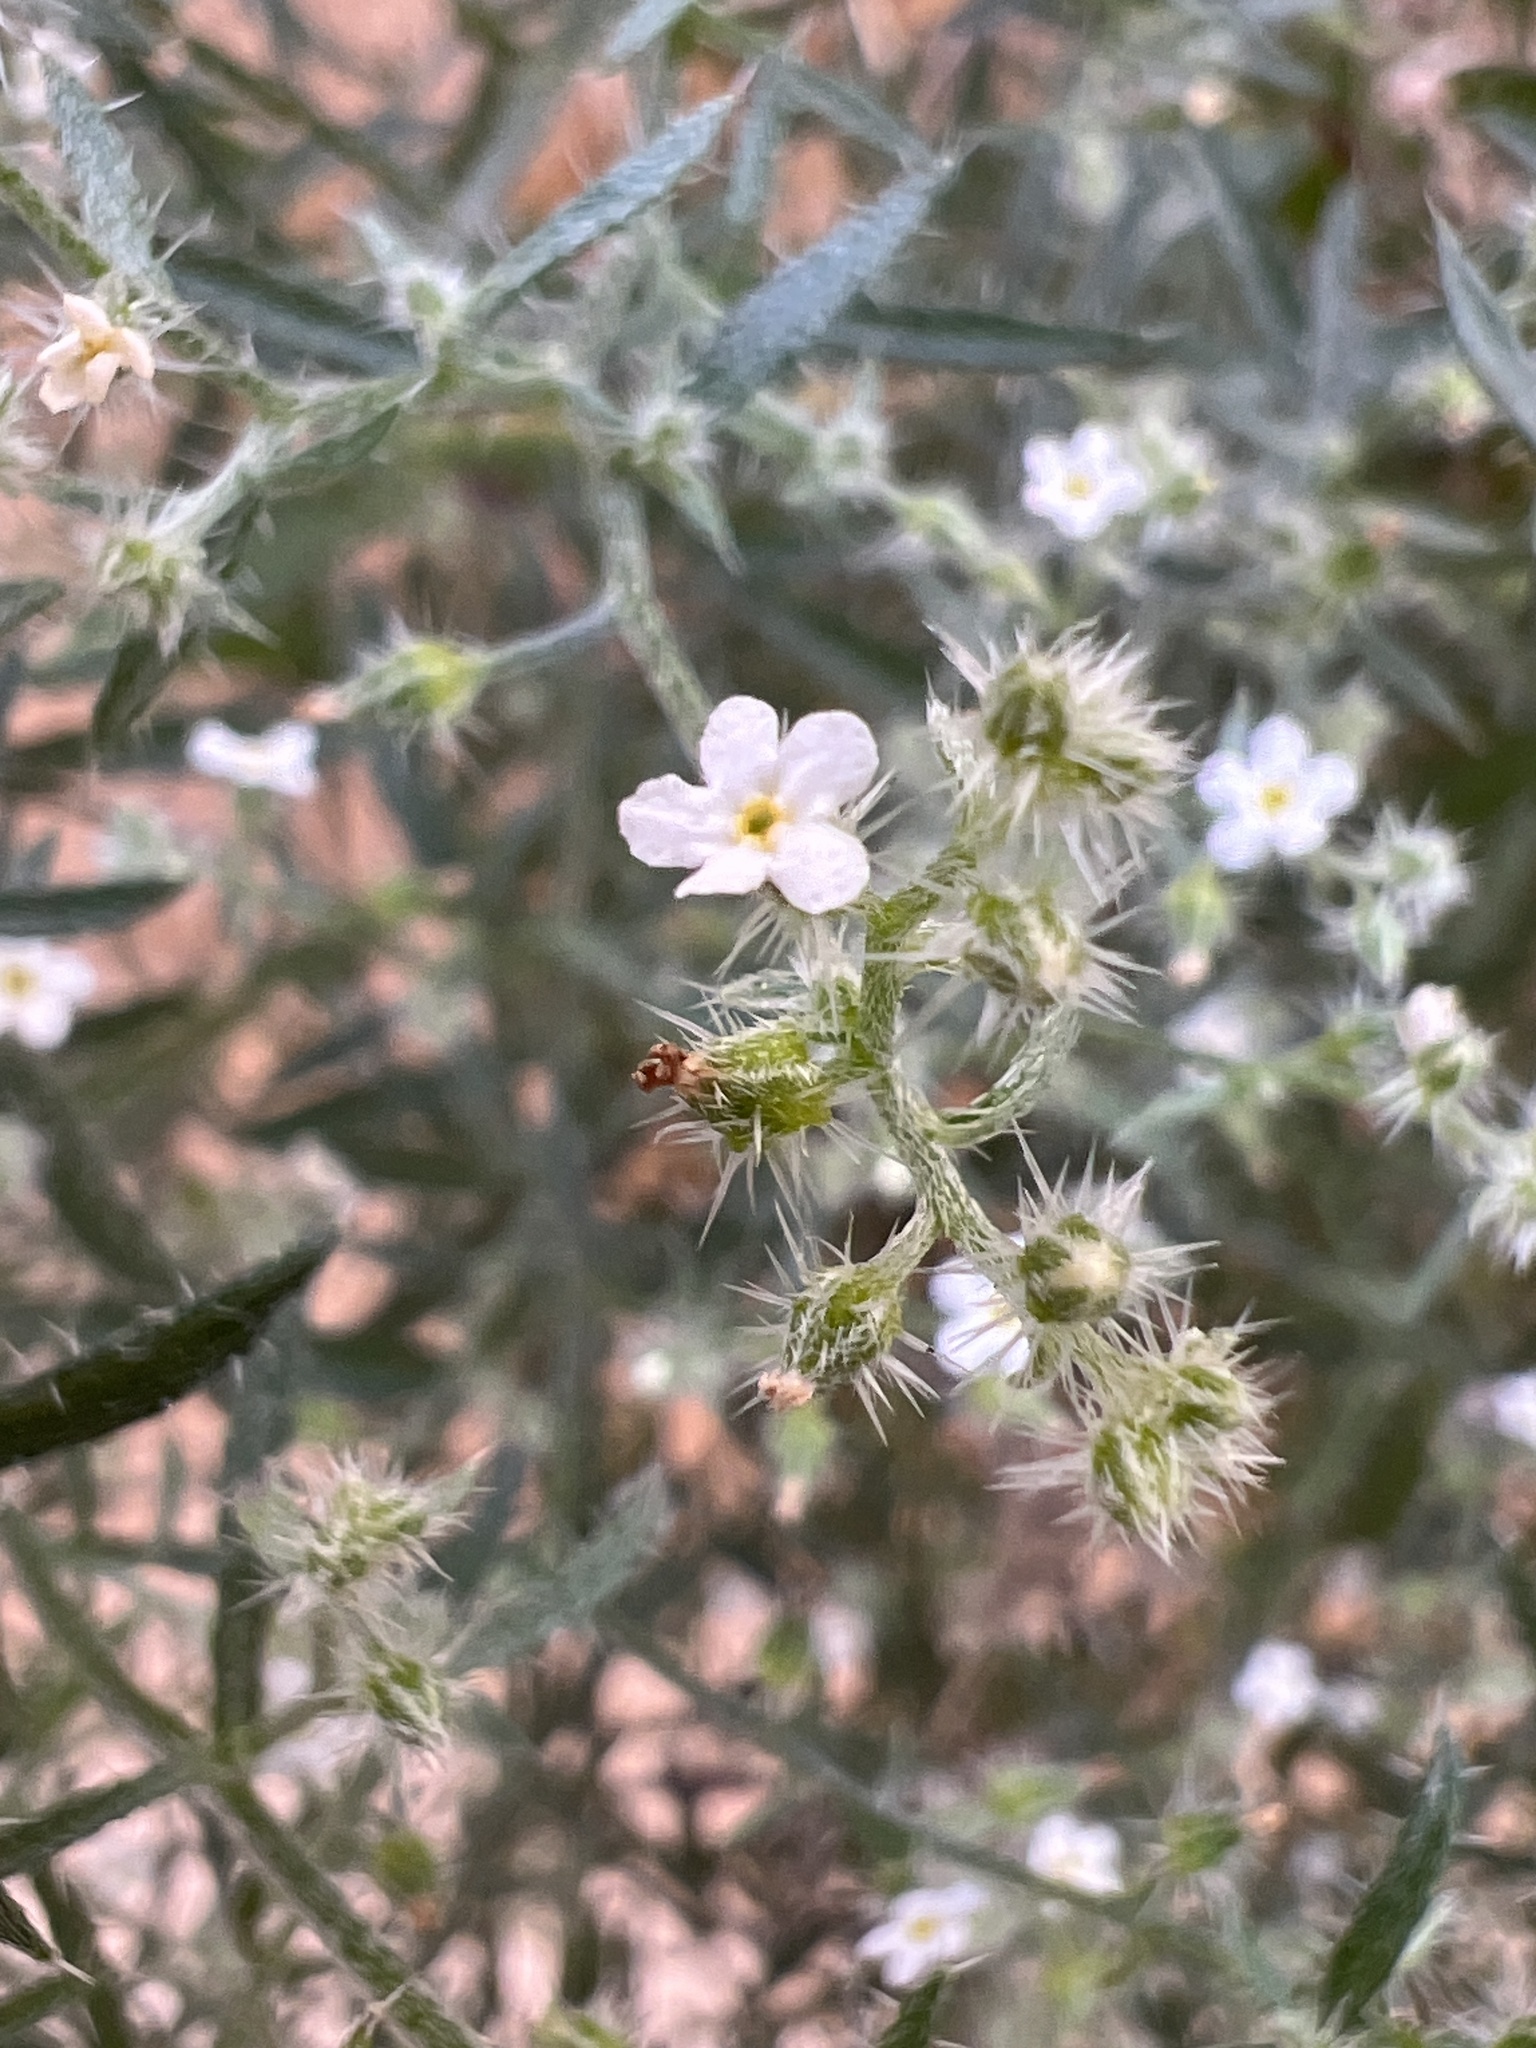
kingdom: Plantae
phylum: Tracheophyta
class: Magnoliopsida
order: Boraginales
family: Boraginaceae
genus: Johnstonella
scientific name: Johnstonella racemosa
